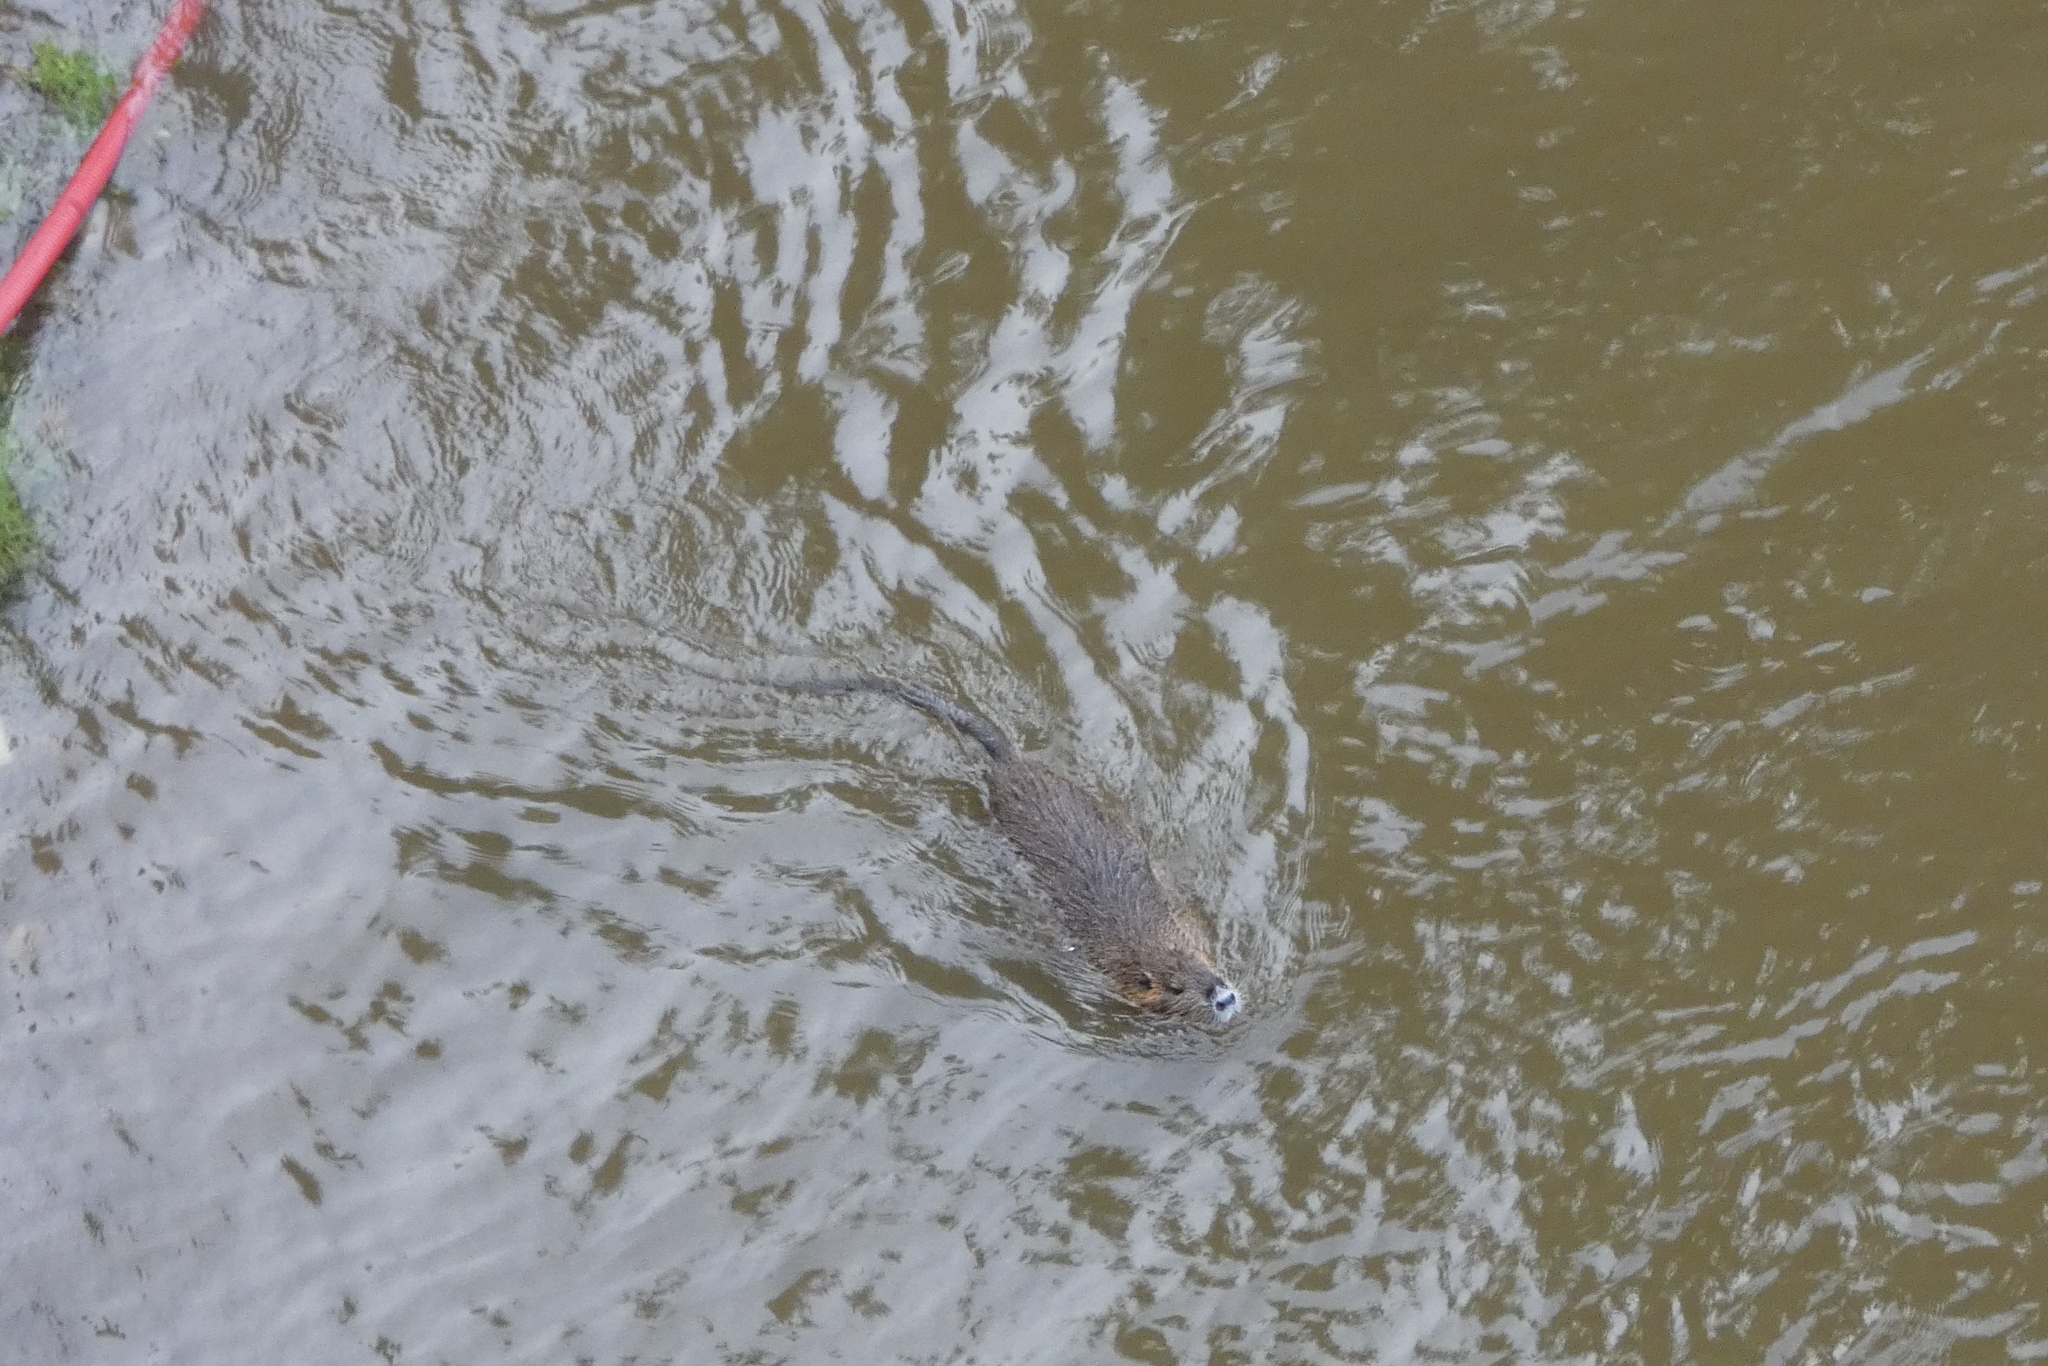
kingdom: Animalia
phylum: Chordata
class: Mammalia
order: Rodentia
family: Myocastoridae
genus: Myocastor
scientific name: Myocastor coypus
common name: Coypu
